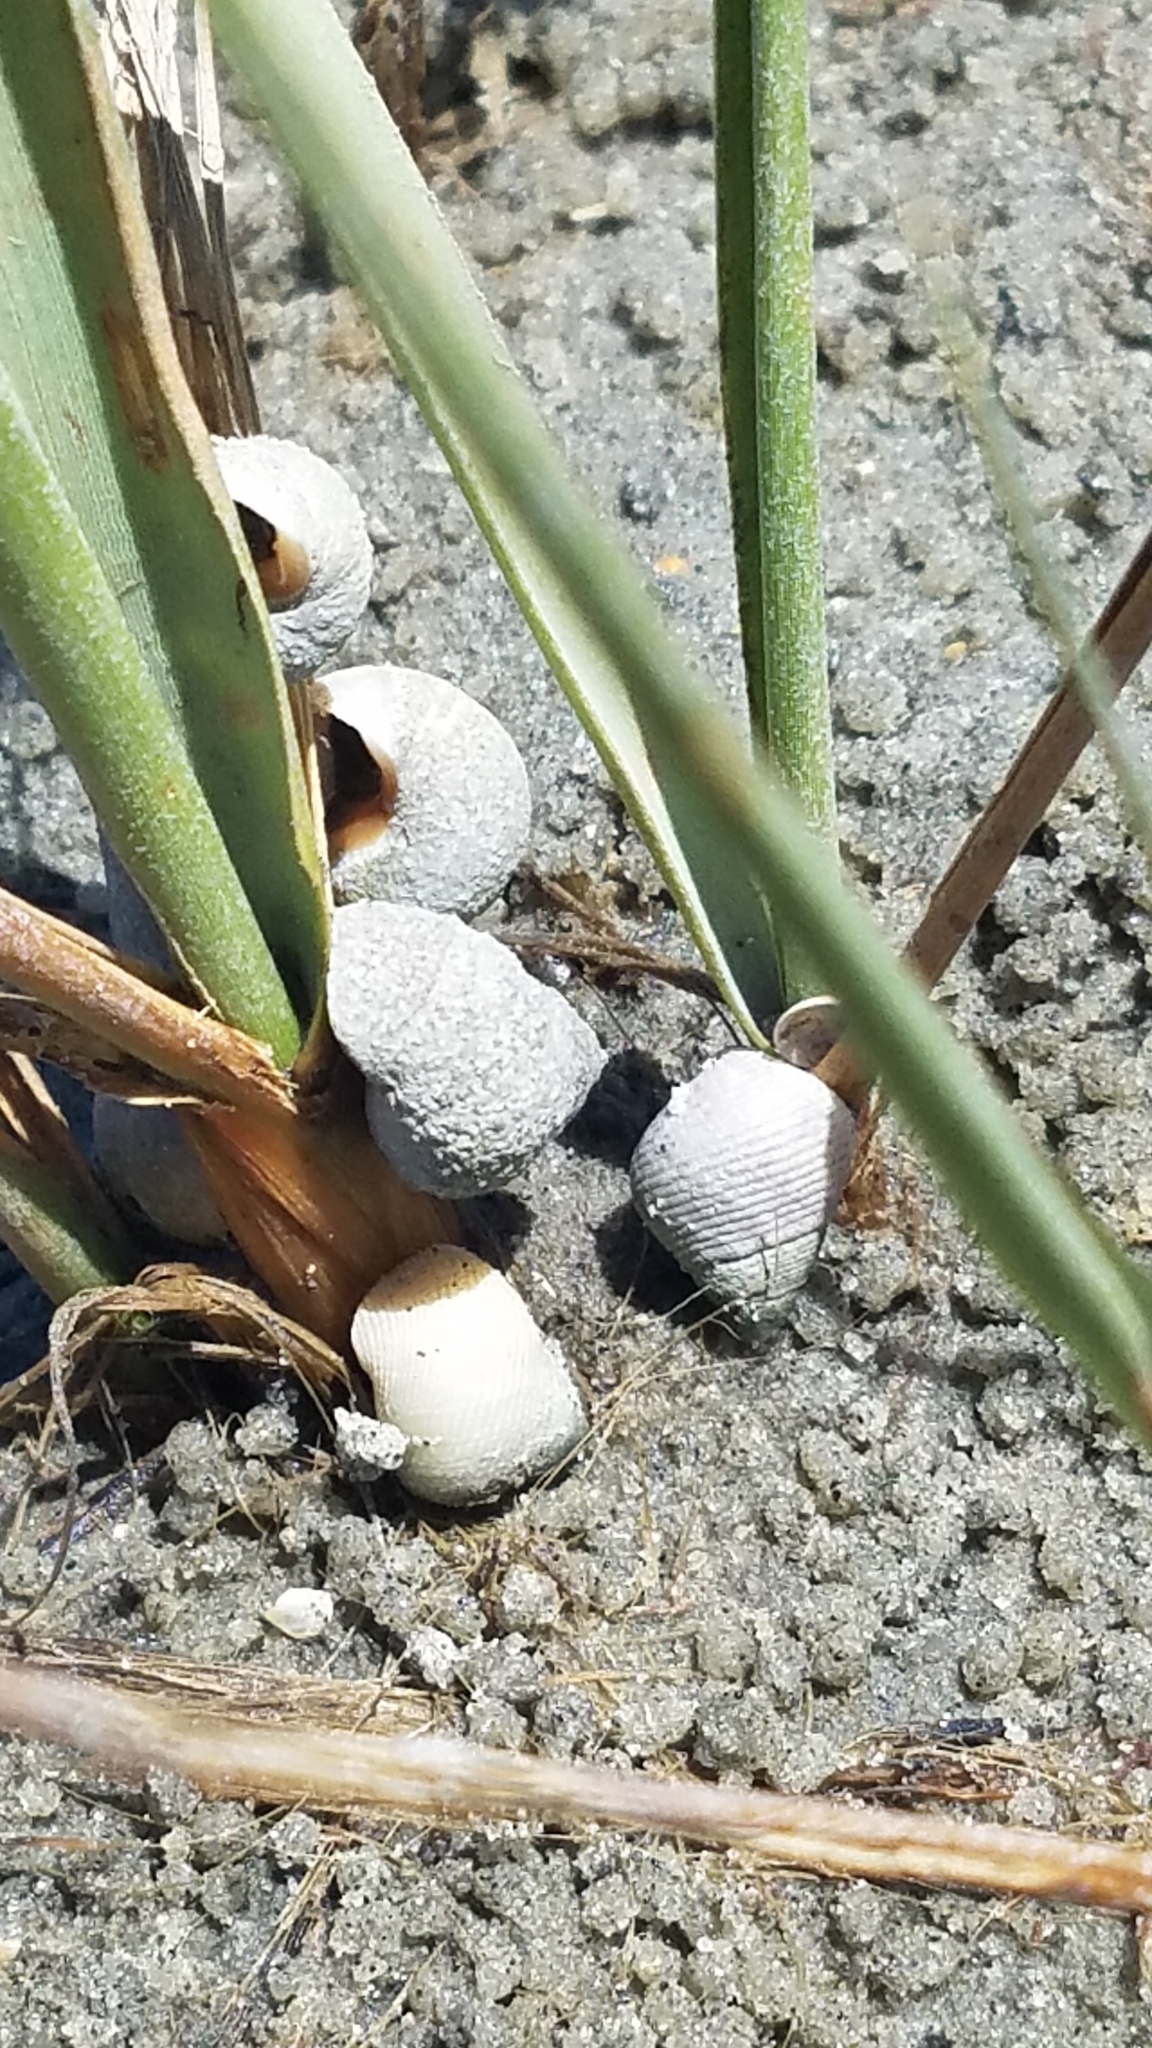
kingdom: Animalia
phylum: Mollusca
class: Gastropoda
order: Littorinimorpha
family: Littorinidae
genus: Littoraria
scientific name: Littoraria irrorata
